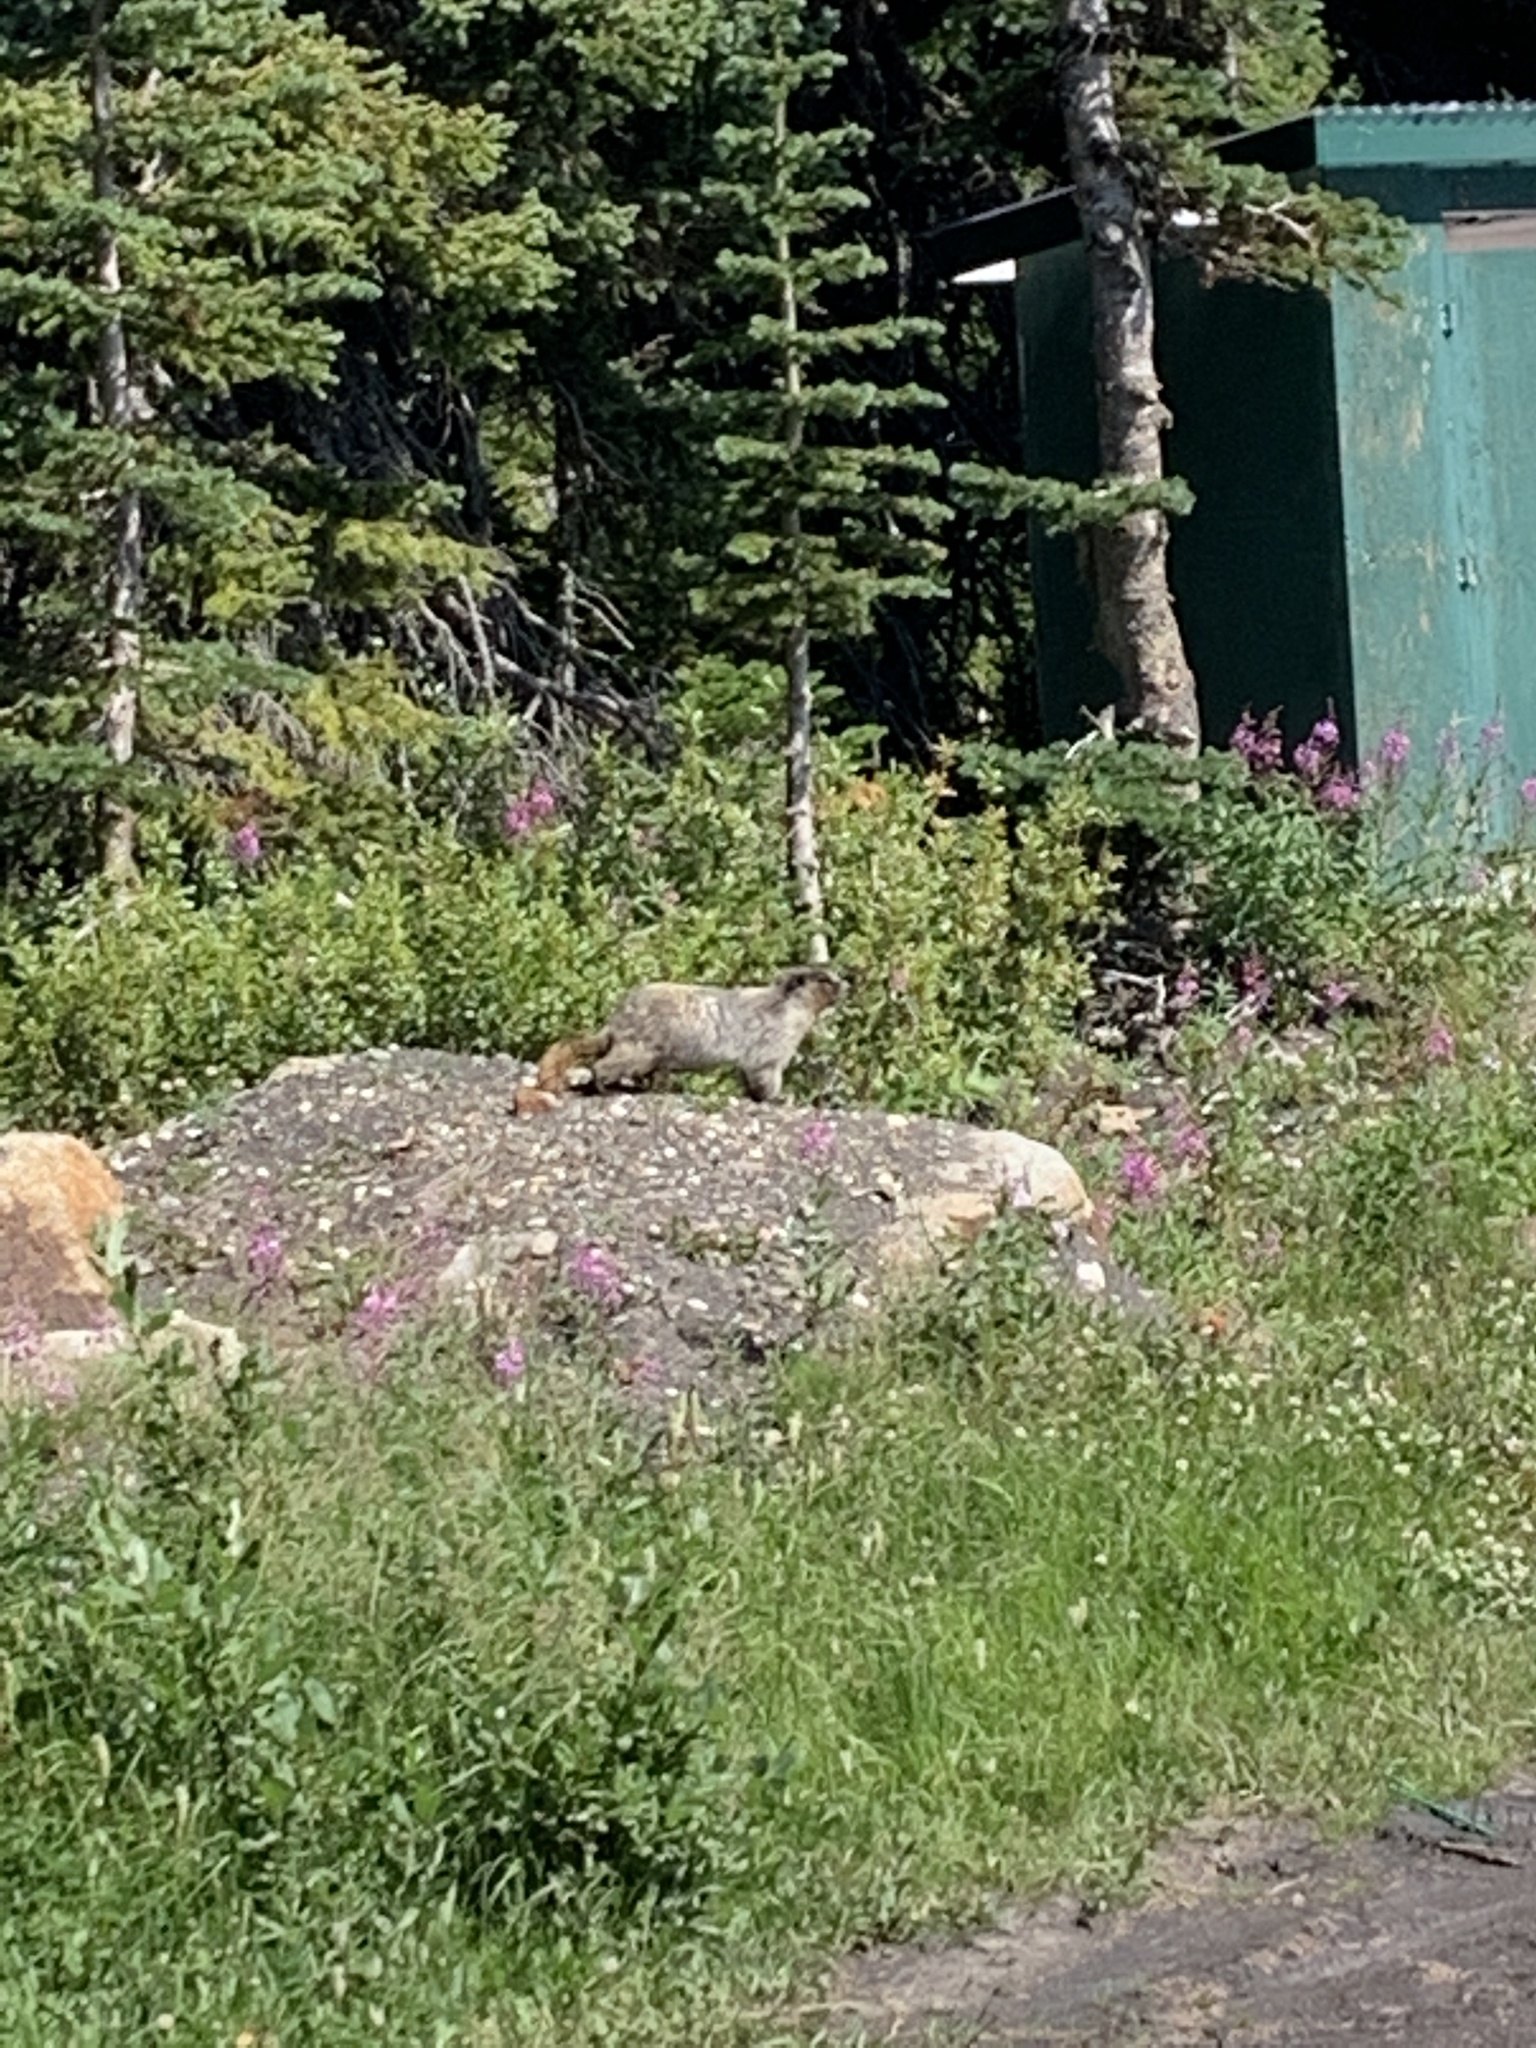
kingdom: Animalia
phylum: Chordata
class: Mammalia
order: Rodentia
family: Sciuridae
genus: Marmota
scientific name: Marmota caligata
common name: Hoary marmot
